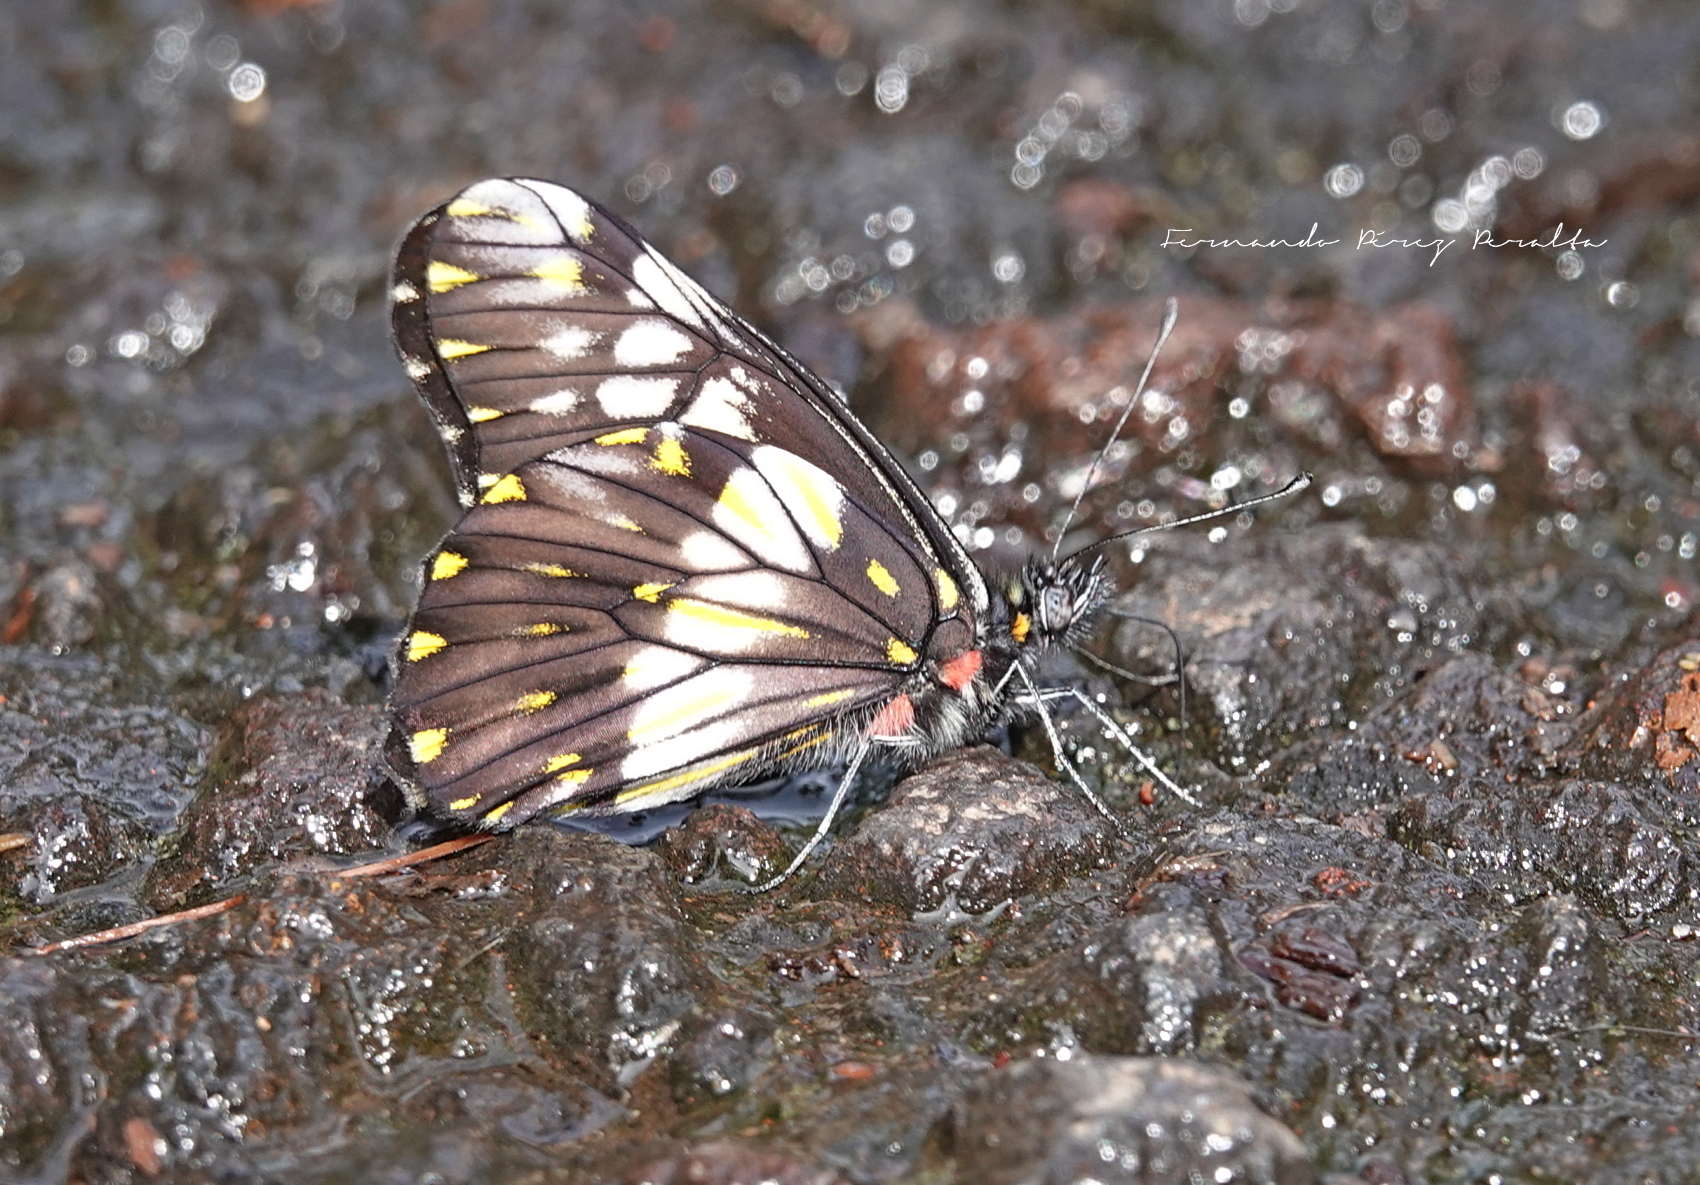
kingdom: Animalia
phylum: Arthropoda
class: Insecta
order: Lepidoptera
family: Pieridae
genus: Archonias
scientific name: Archonias nimbice
